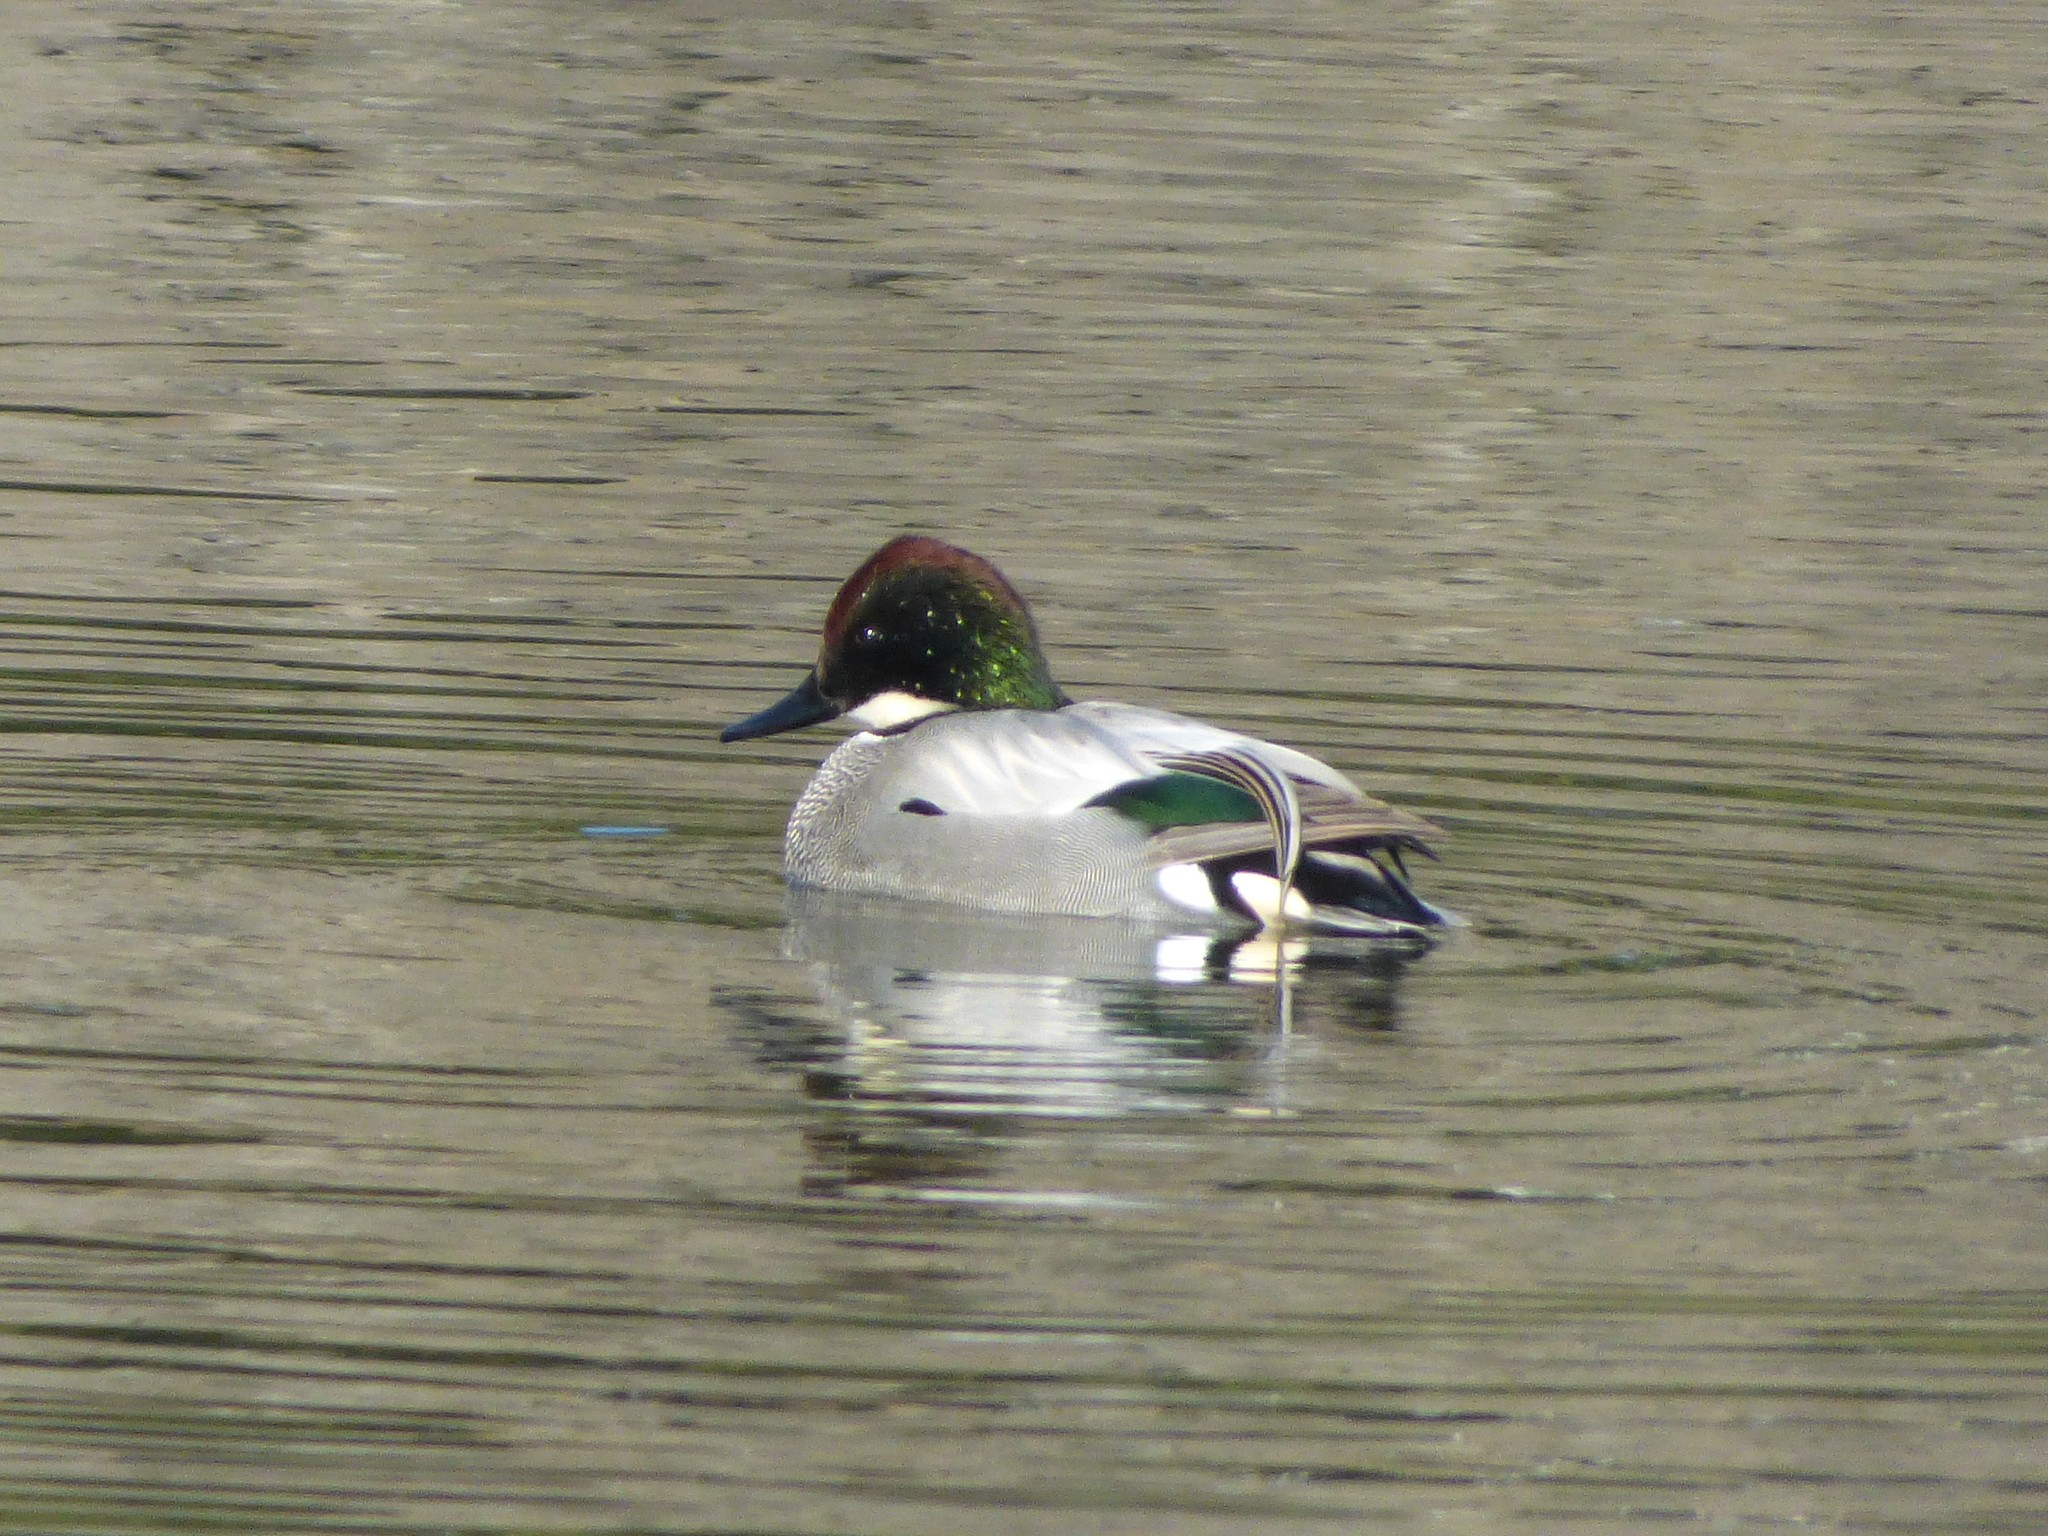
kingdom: Animalia
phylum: Chordata
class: Aves
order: Anseriformes
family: Anatidae
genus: Mareca
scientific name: Mareca falcata
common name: Falcated duck
